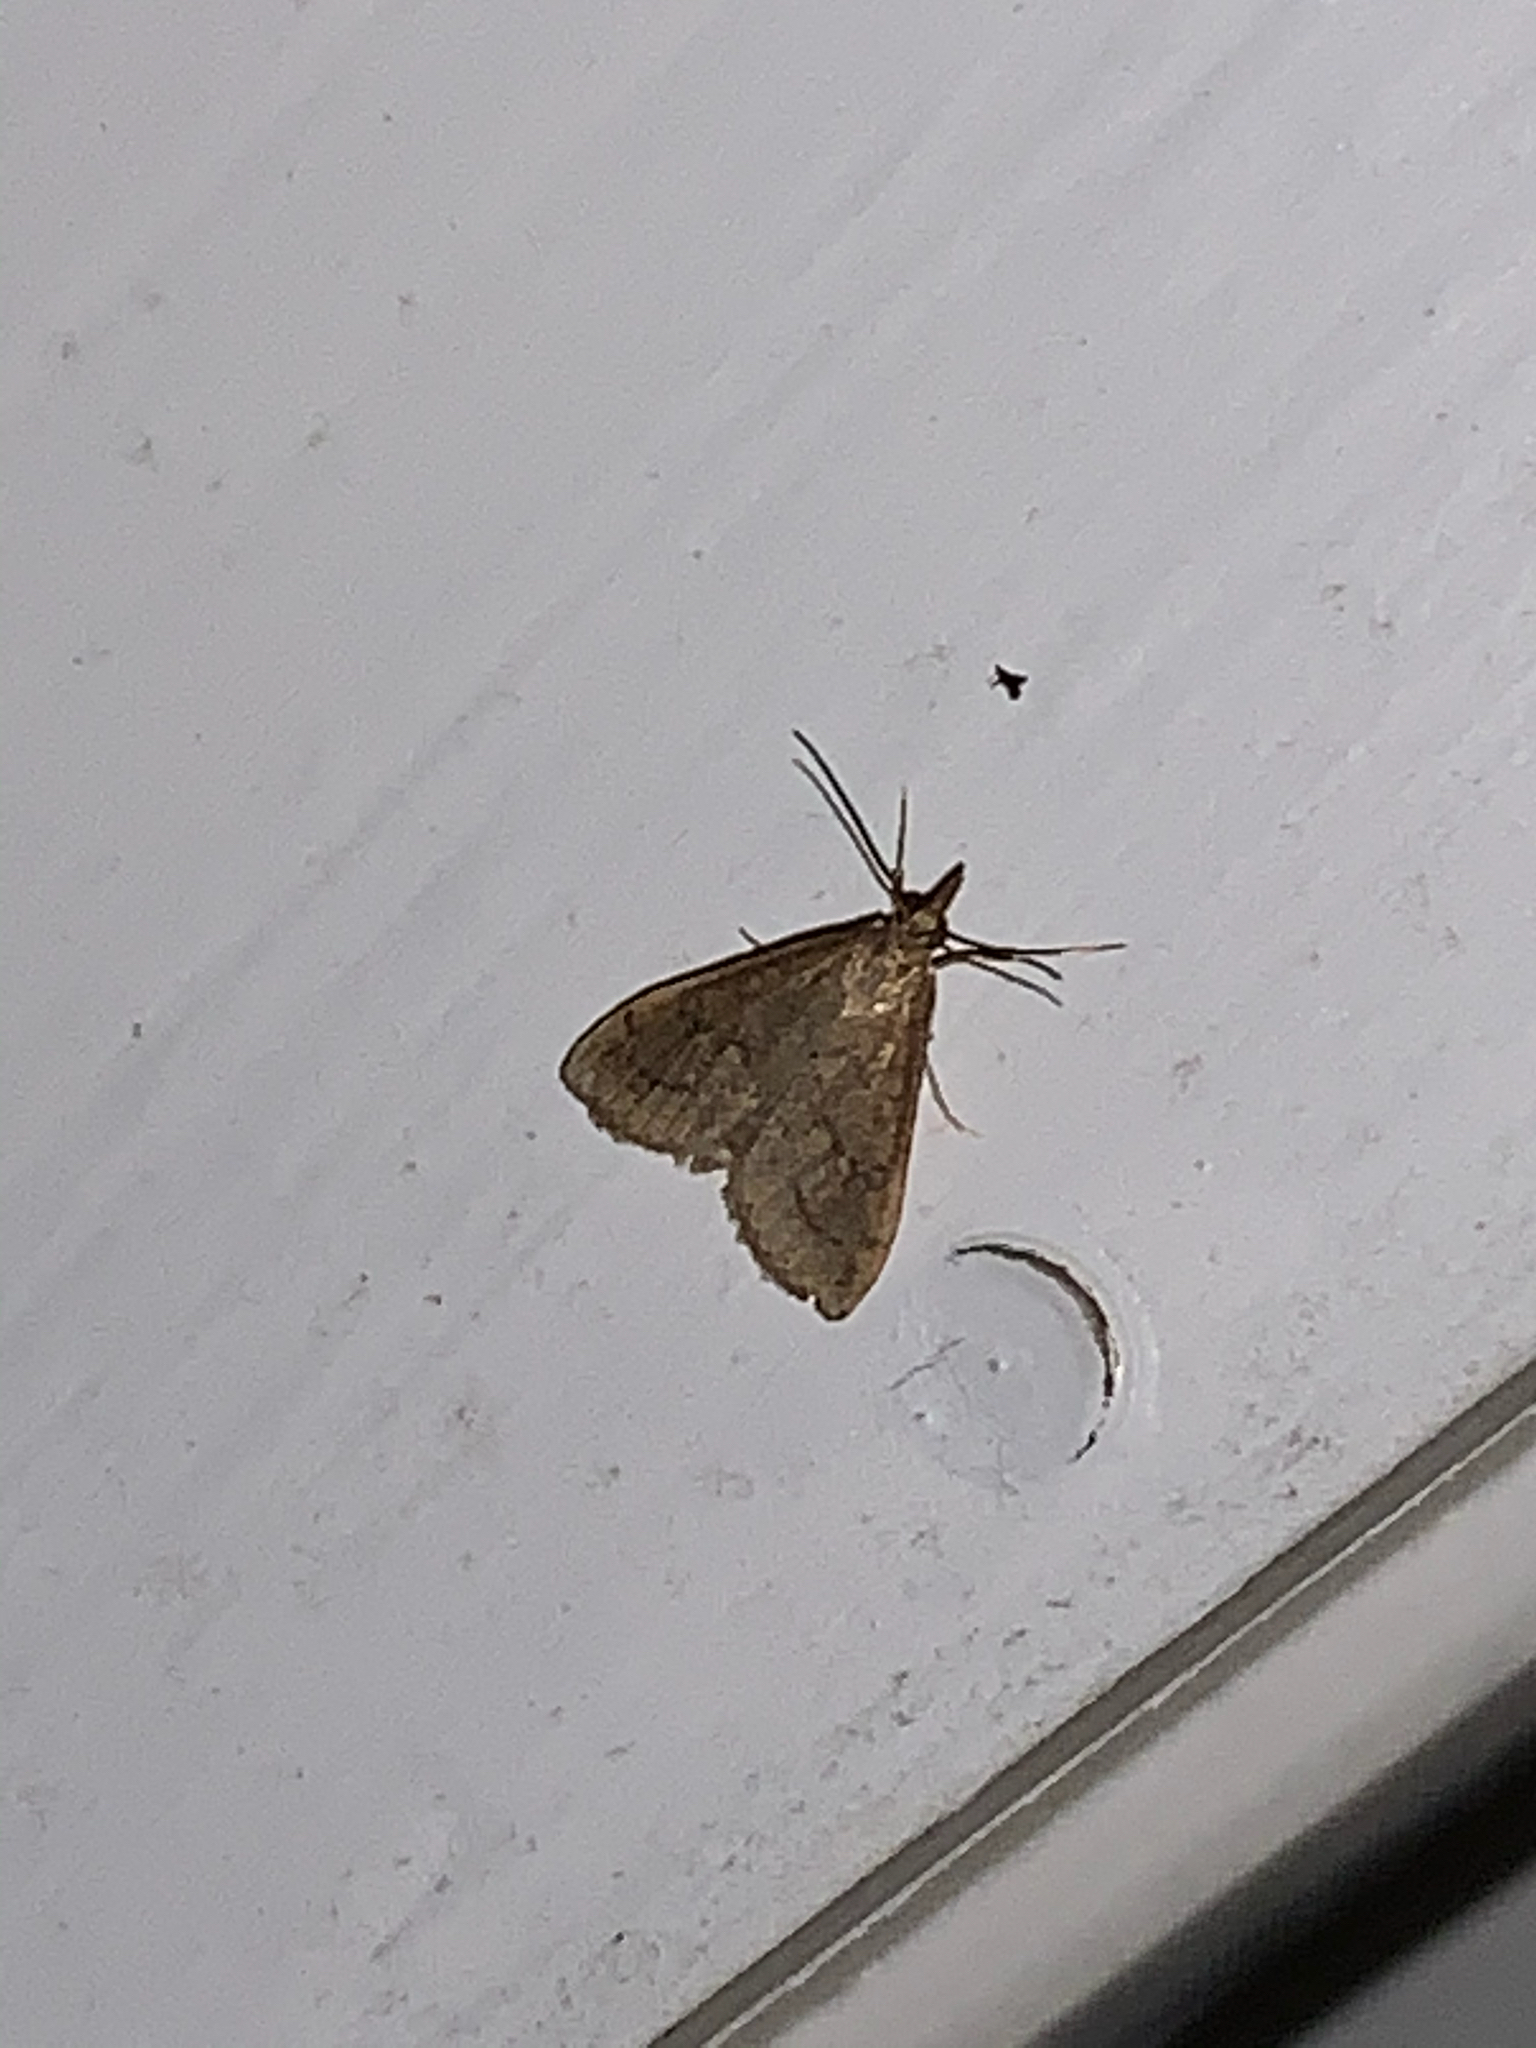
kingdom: Animalia
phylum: Arthropoda
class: Insecta
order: Lepidoptera
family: Crambidae
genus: Udea
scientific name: Udea rubigalis
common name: Celery leaftier moth
